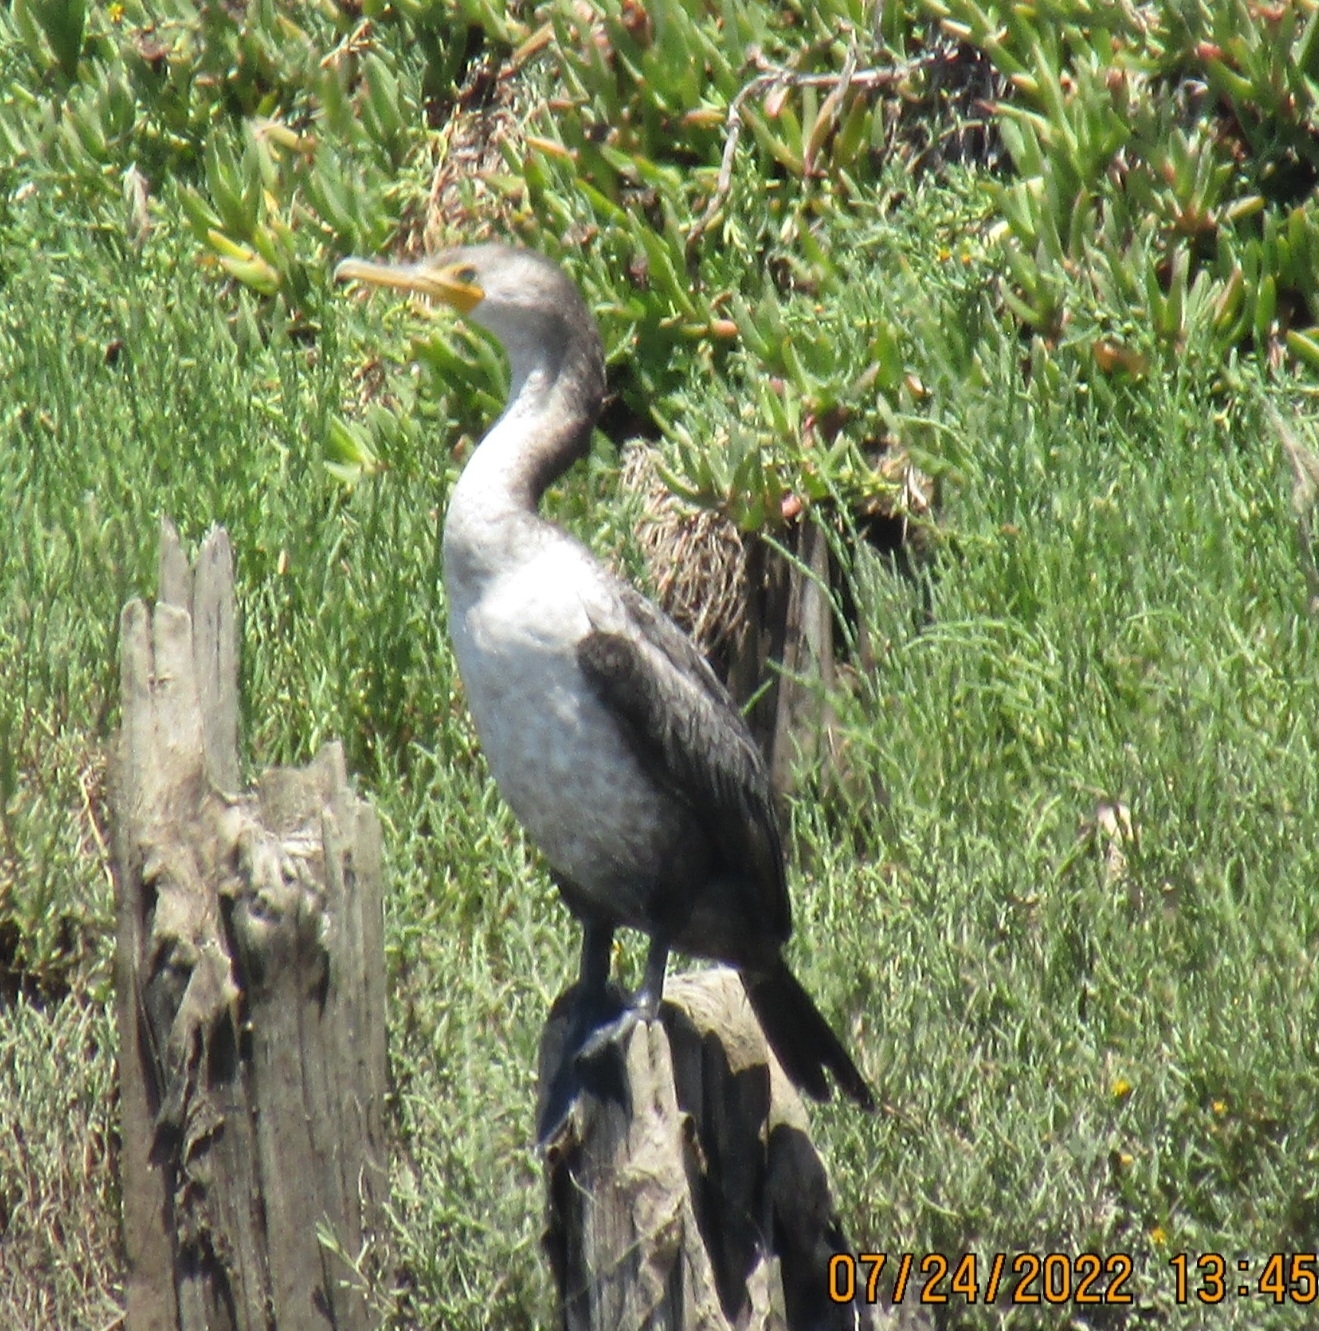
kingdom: Animalia
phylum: Chordata
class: Aves
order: Suliformes
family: Phalacrocoracidae
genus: Phalacrocorax
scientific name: Phalacrocorax auritus
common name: Double-crested cormorant
